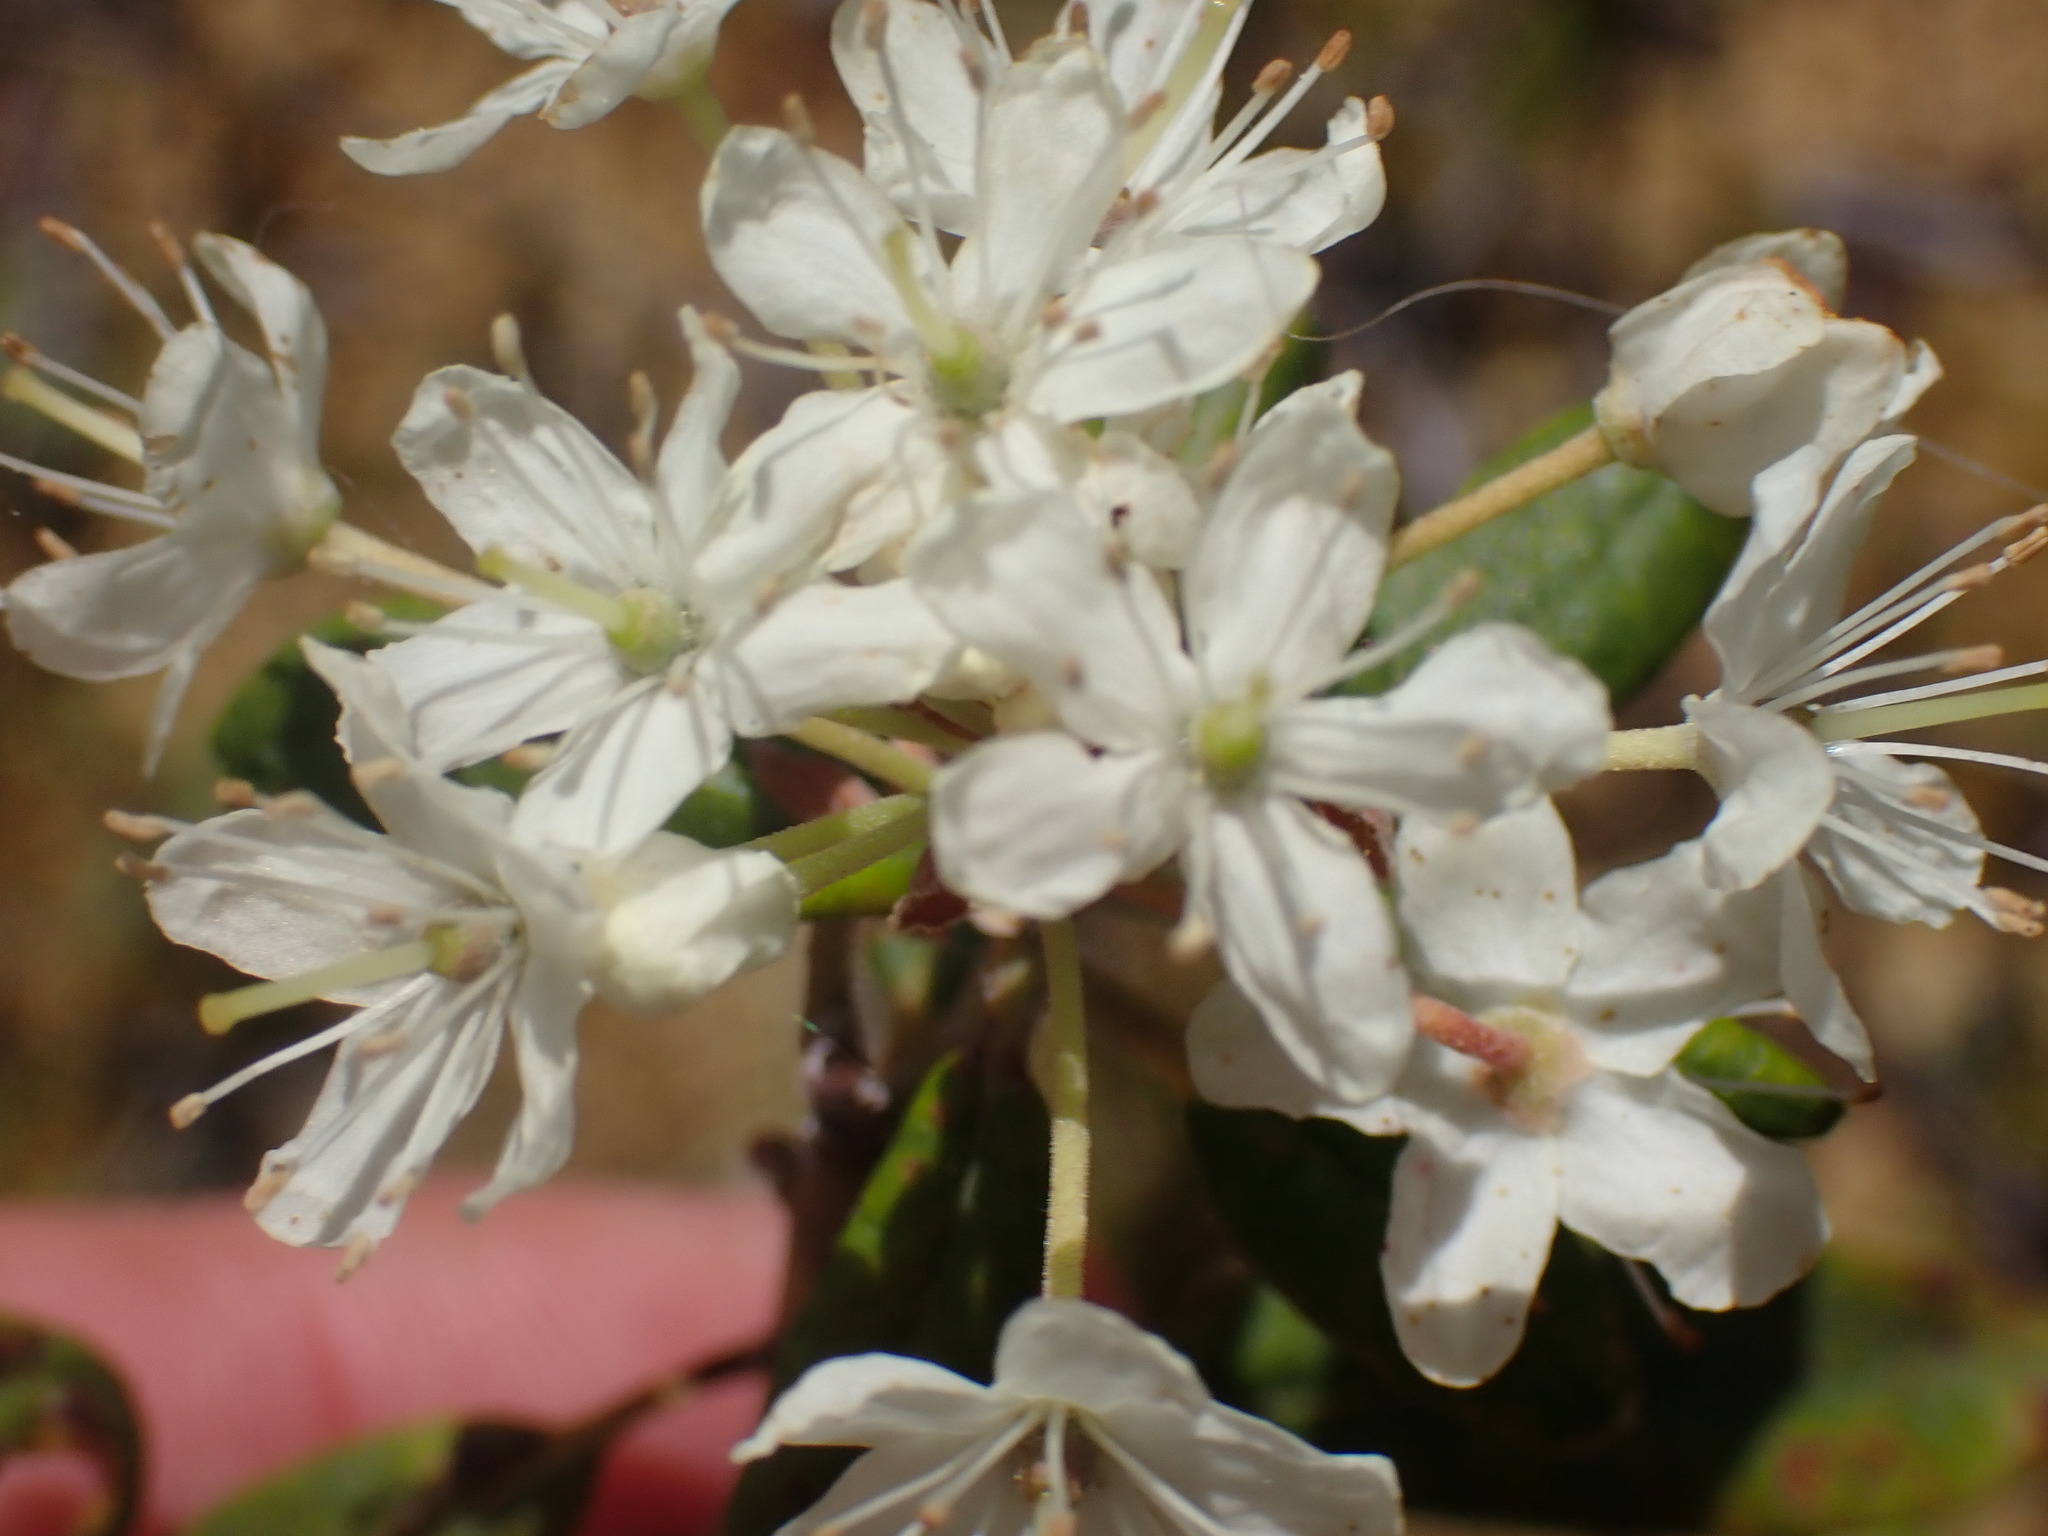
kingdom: Plantae
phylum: Tracheophyta
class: Magnoliopsida
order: Ericales
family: Ericaceae
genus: Rhododendron
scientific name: Rhododendron columbianum
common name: Western labrador tea
